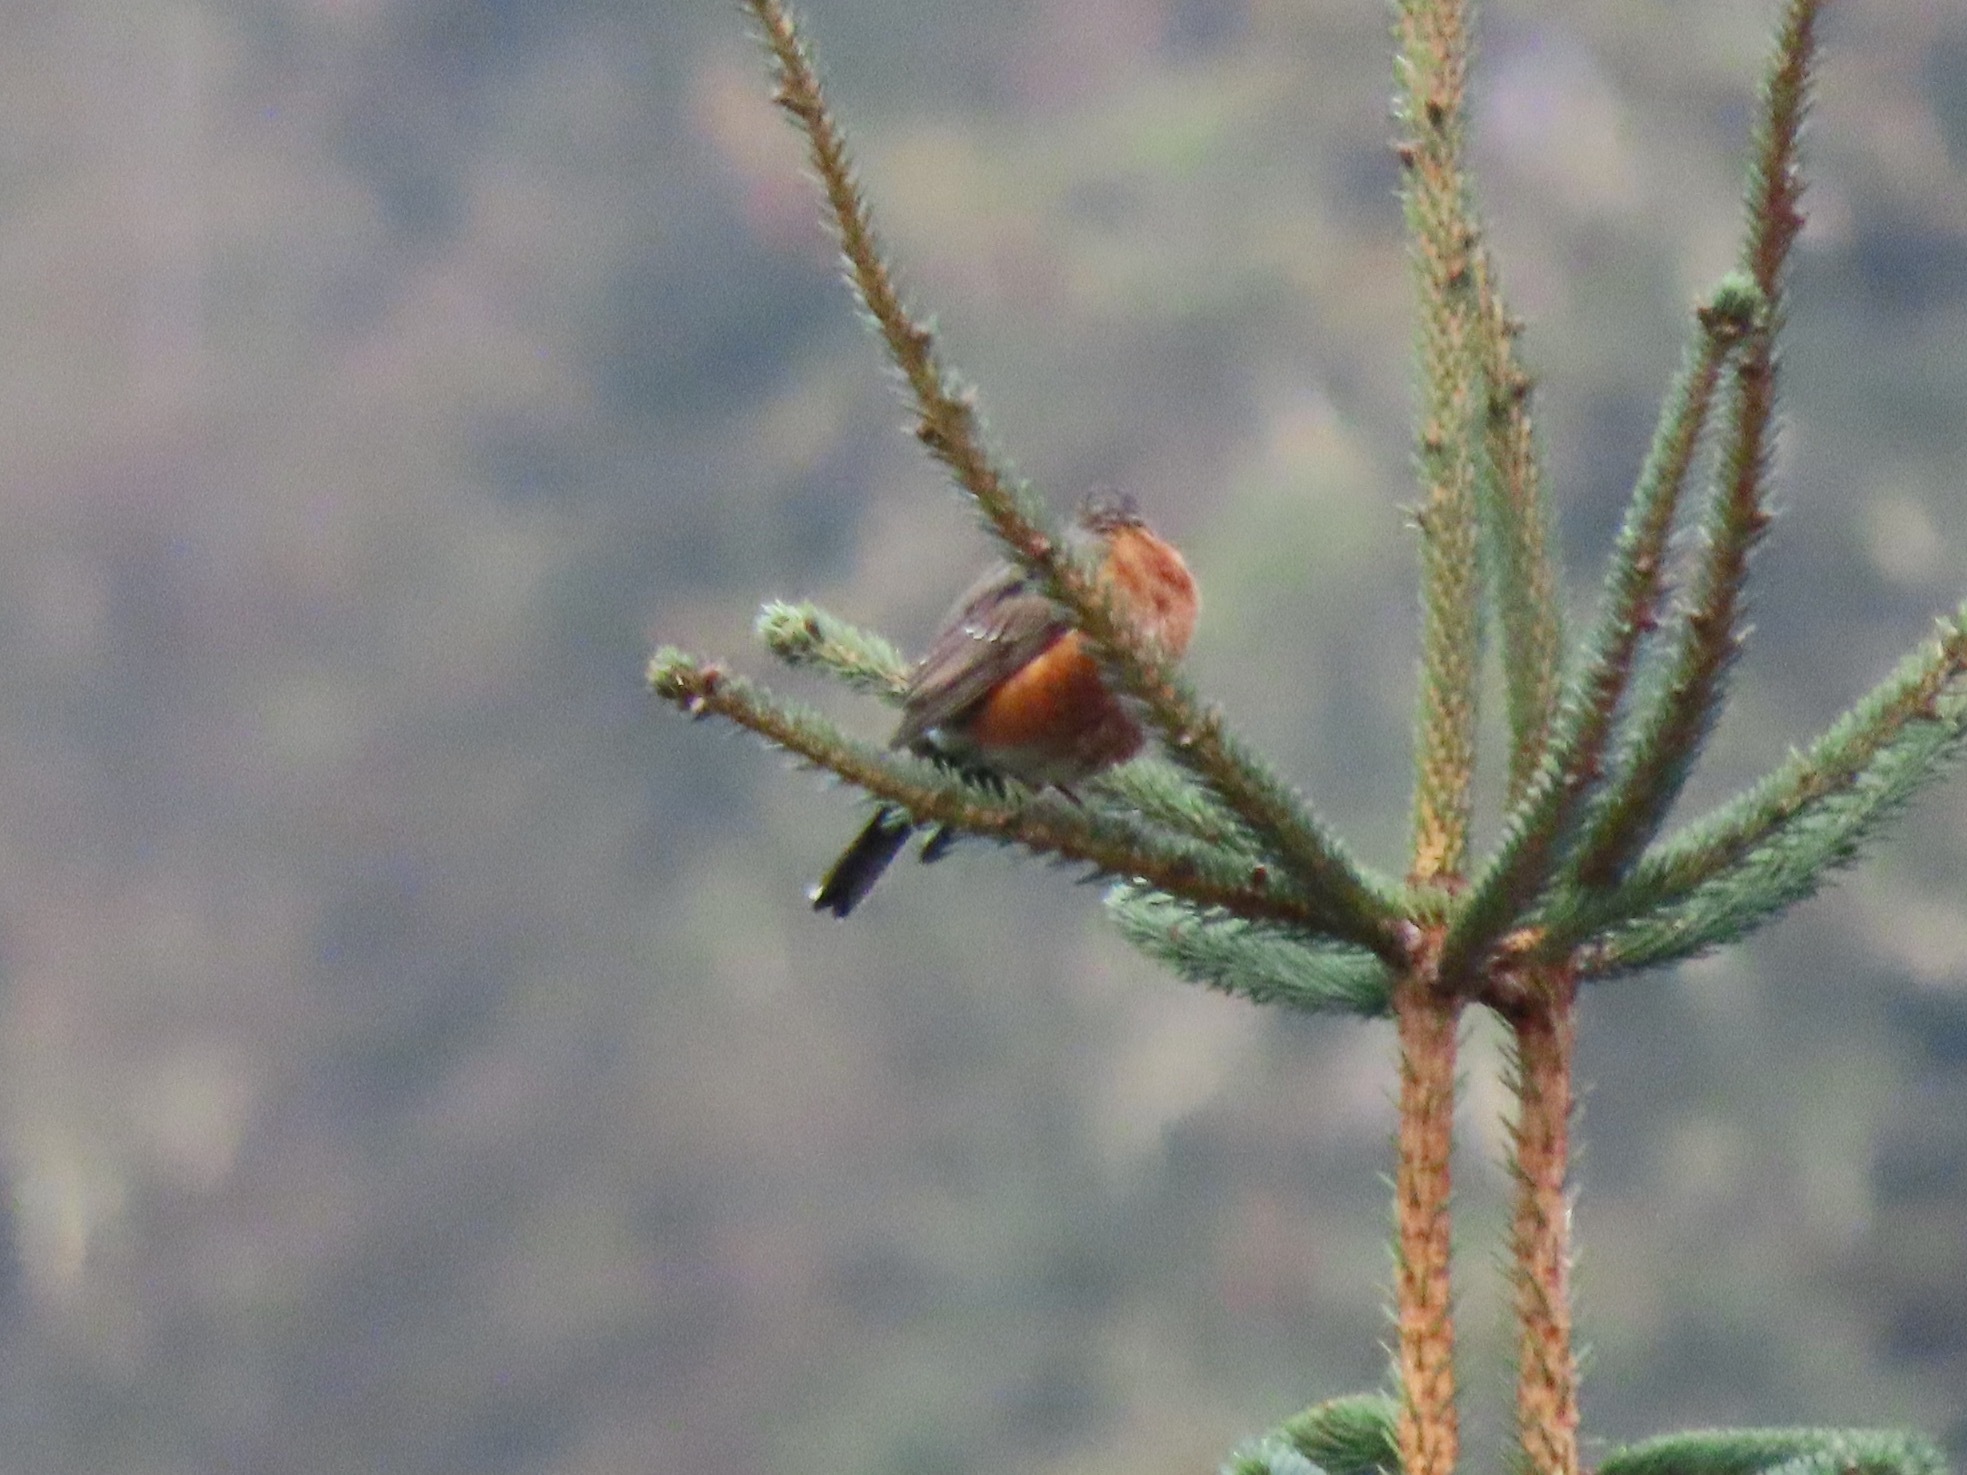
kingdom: Animalia
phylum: Chordata
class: Aves
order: Passeriformes
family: Turdidae
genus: Turdus
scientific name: Turdus migratorius
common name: American robin
